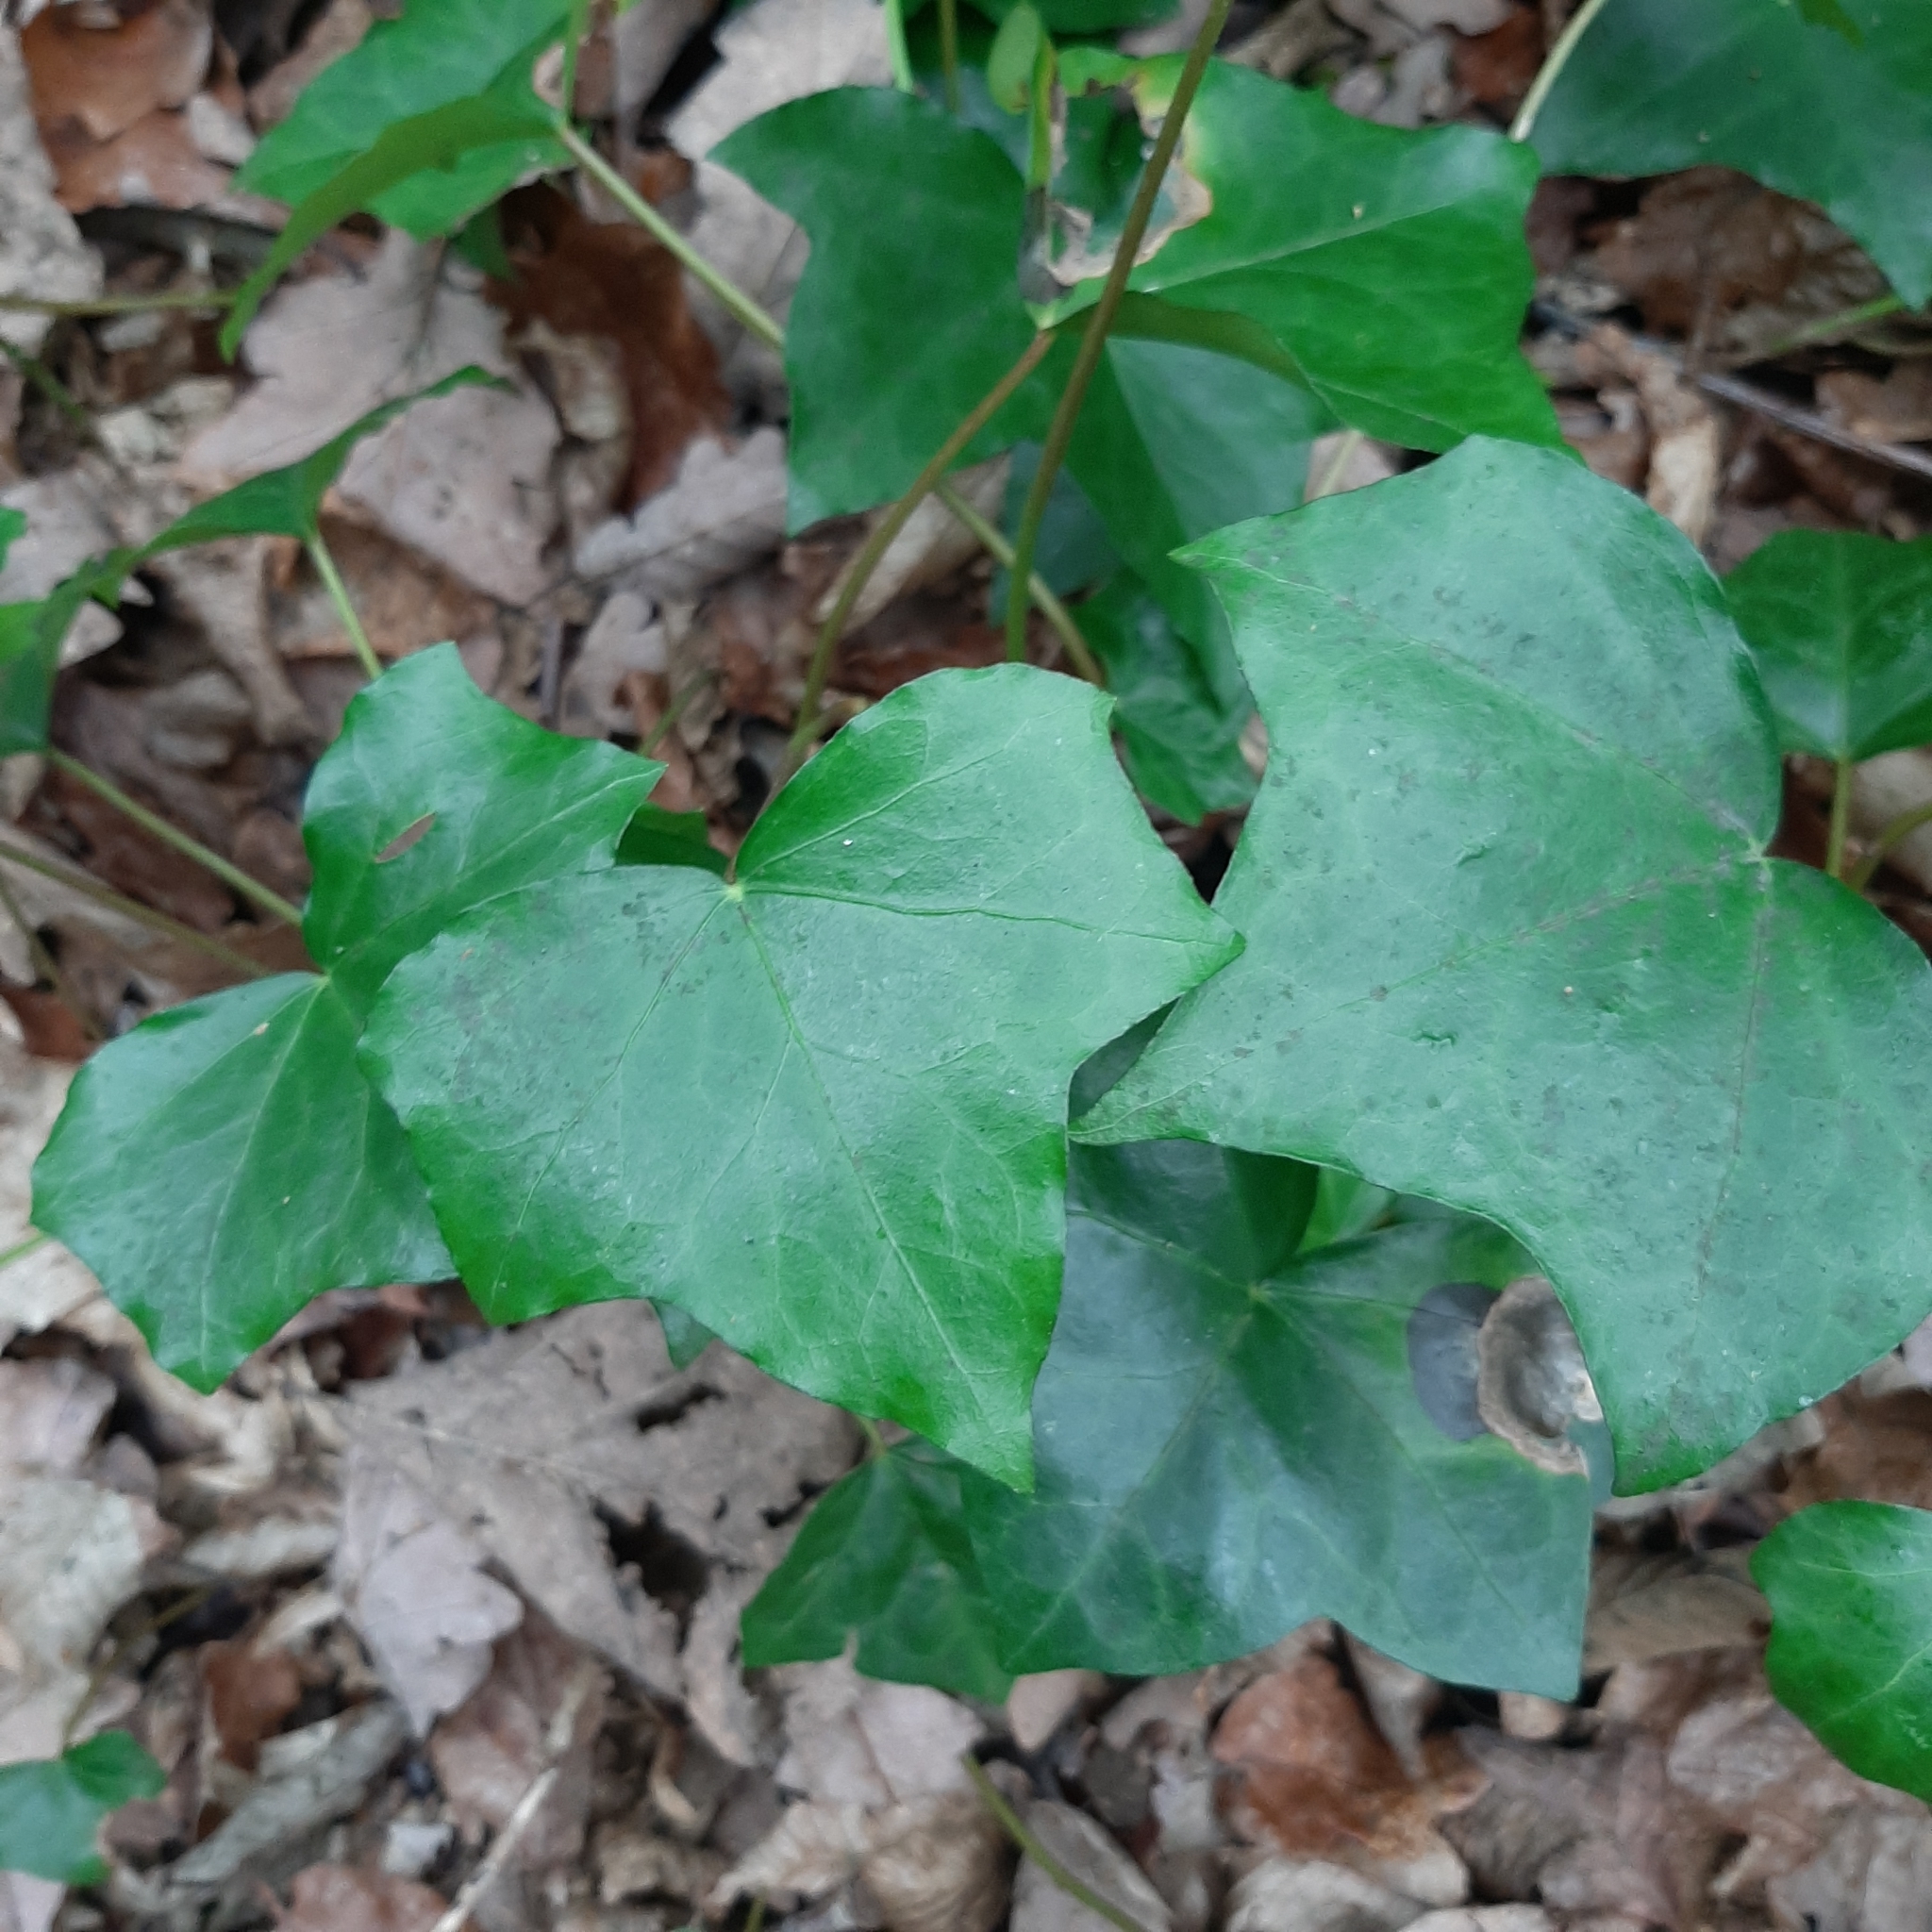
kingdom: Plantae
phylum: Tracheophyta
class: Magnoliopsida
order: Apiales
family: Araliaceae
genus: Hedera
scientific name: Hedera helix
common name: Ivy
